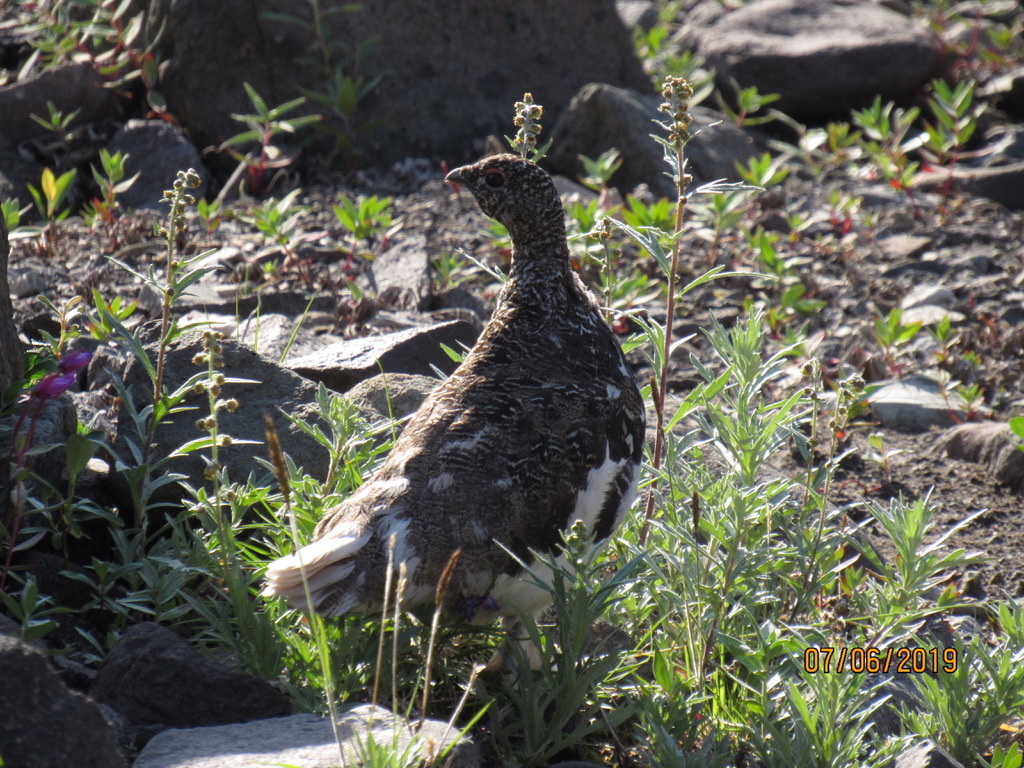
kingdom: Animalia
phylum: Chordata
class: Aves
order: Galliformes
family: Phasianidae
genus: Lagopus
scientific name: Lagopus leucura
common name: White-tailed ptarmigan
